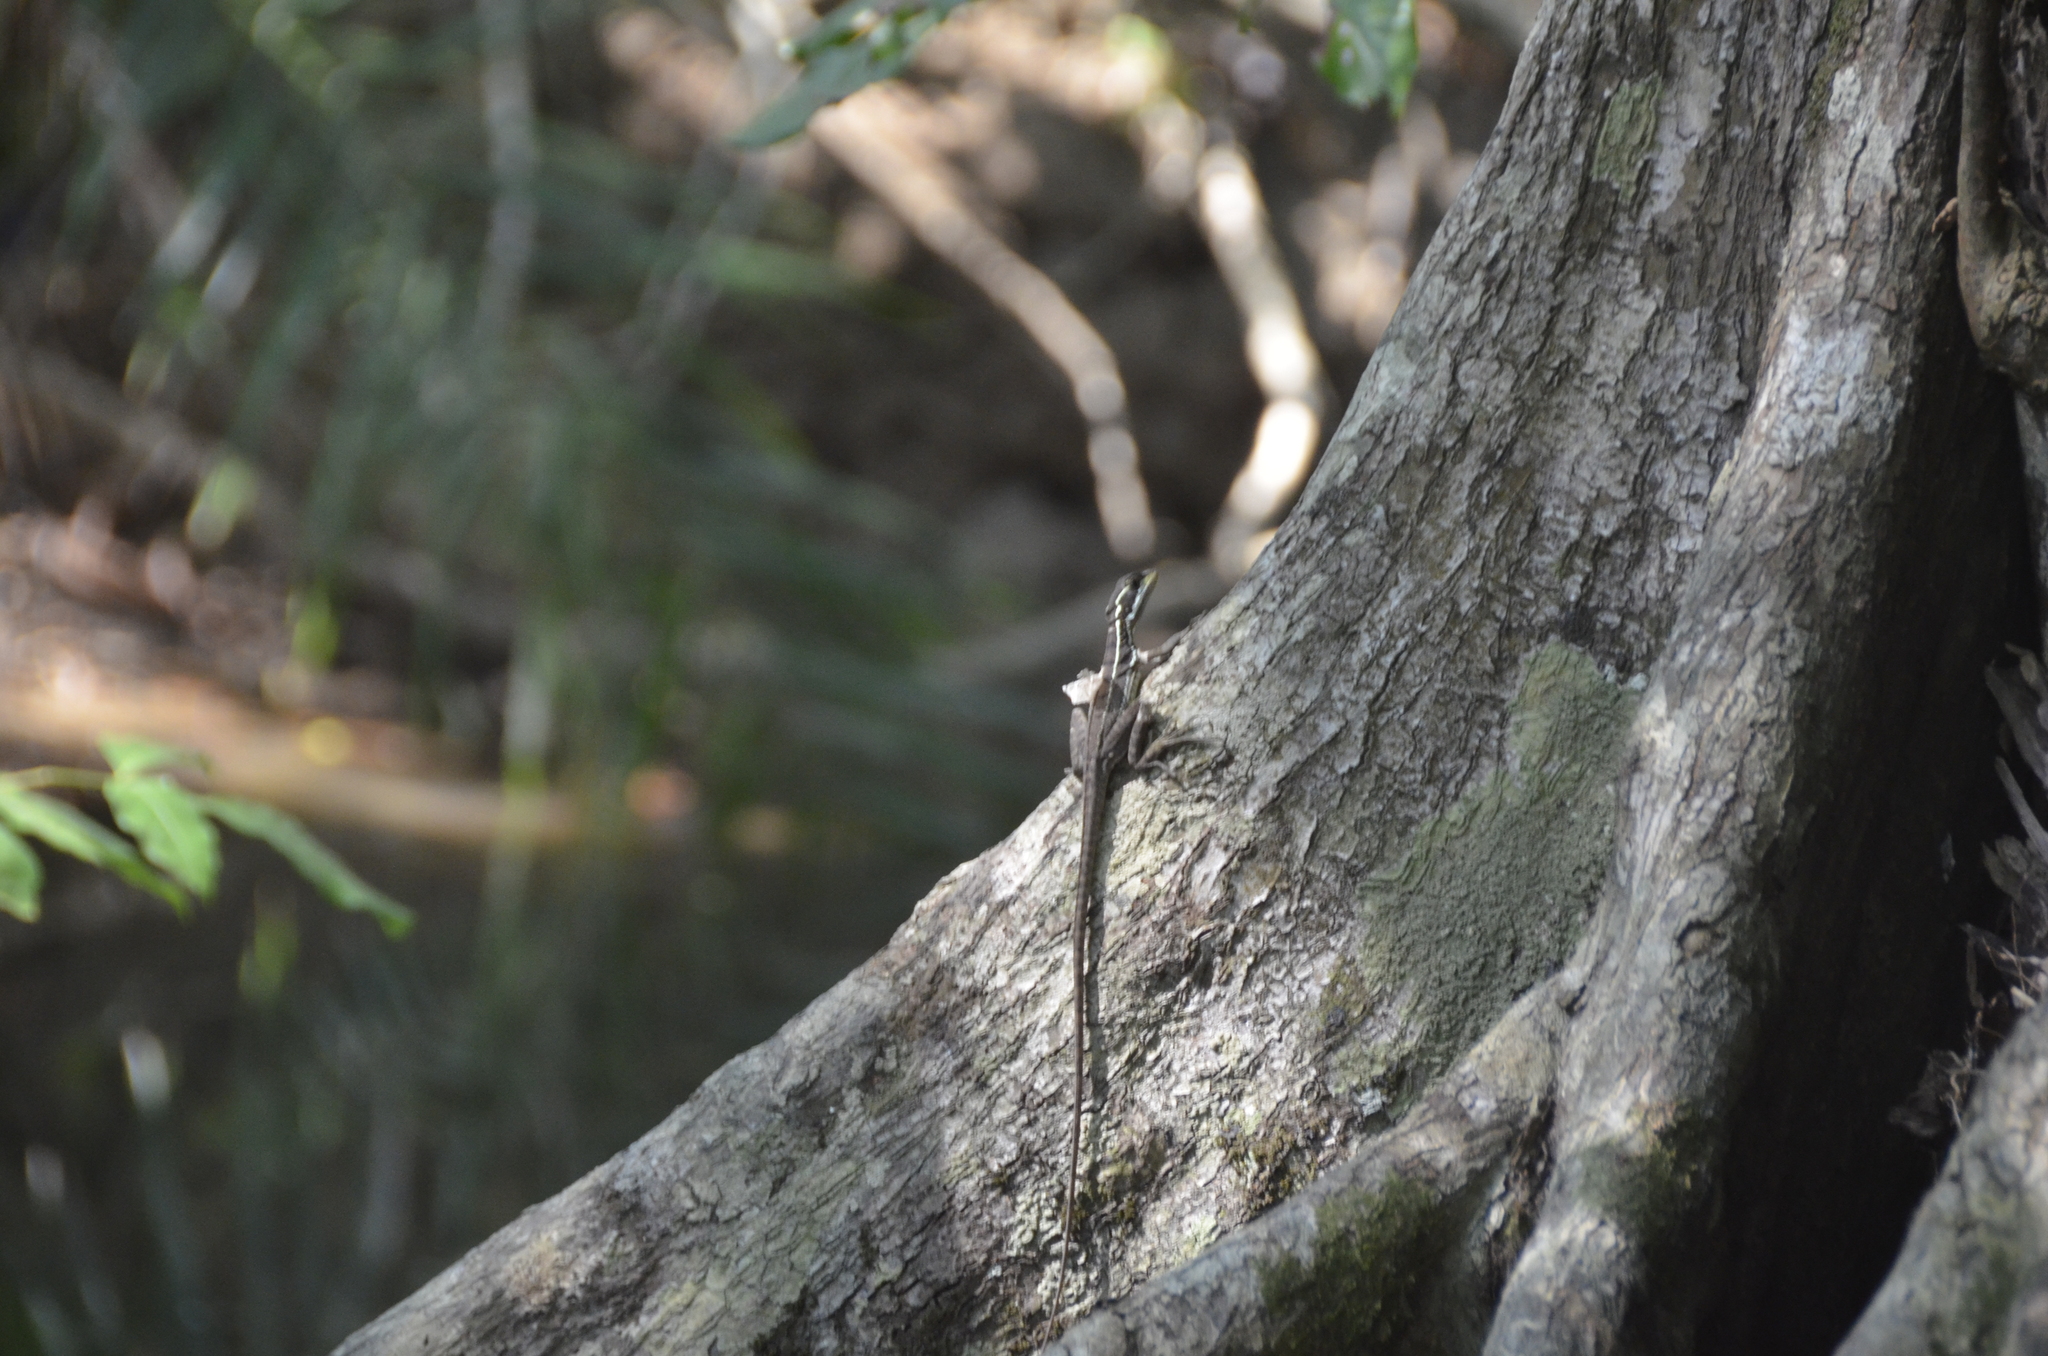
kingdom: Animalia
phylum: Chordata
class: Squamata
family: Corytophanidae
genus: Basiliscus
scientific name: Basiliscus basiliscus
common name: Common basilisk
